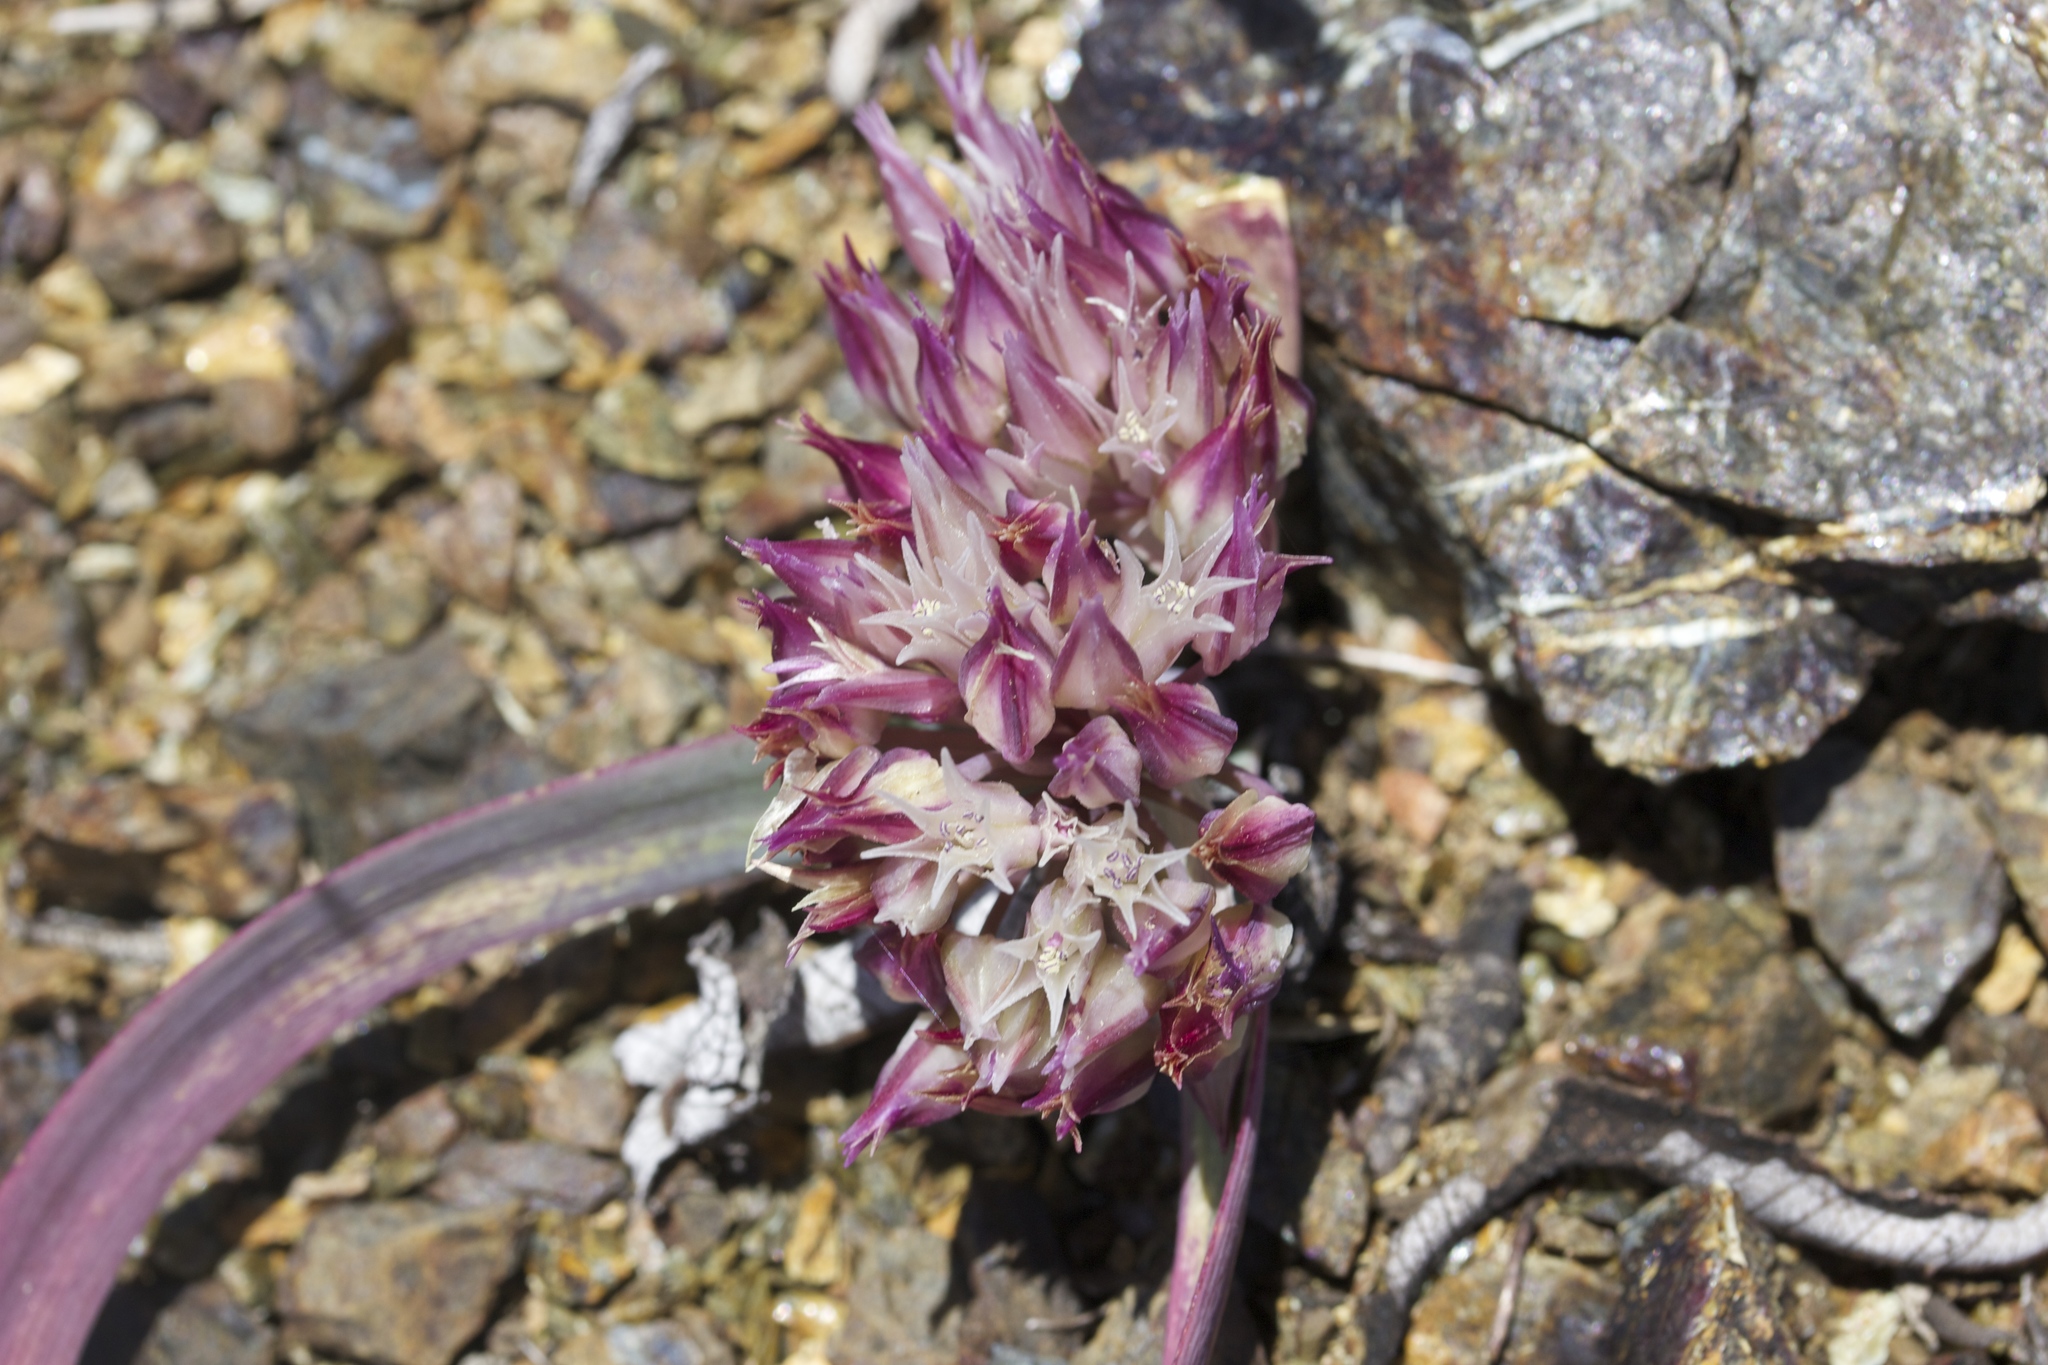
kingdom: Plantae
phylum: Tracheophyta
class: Liliopsida
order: Asparagales
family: Amaryllidaceae
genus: Allium
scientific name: Allium falcifolium
